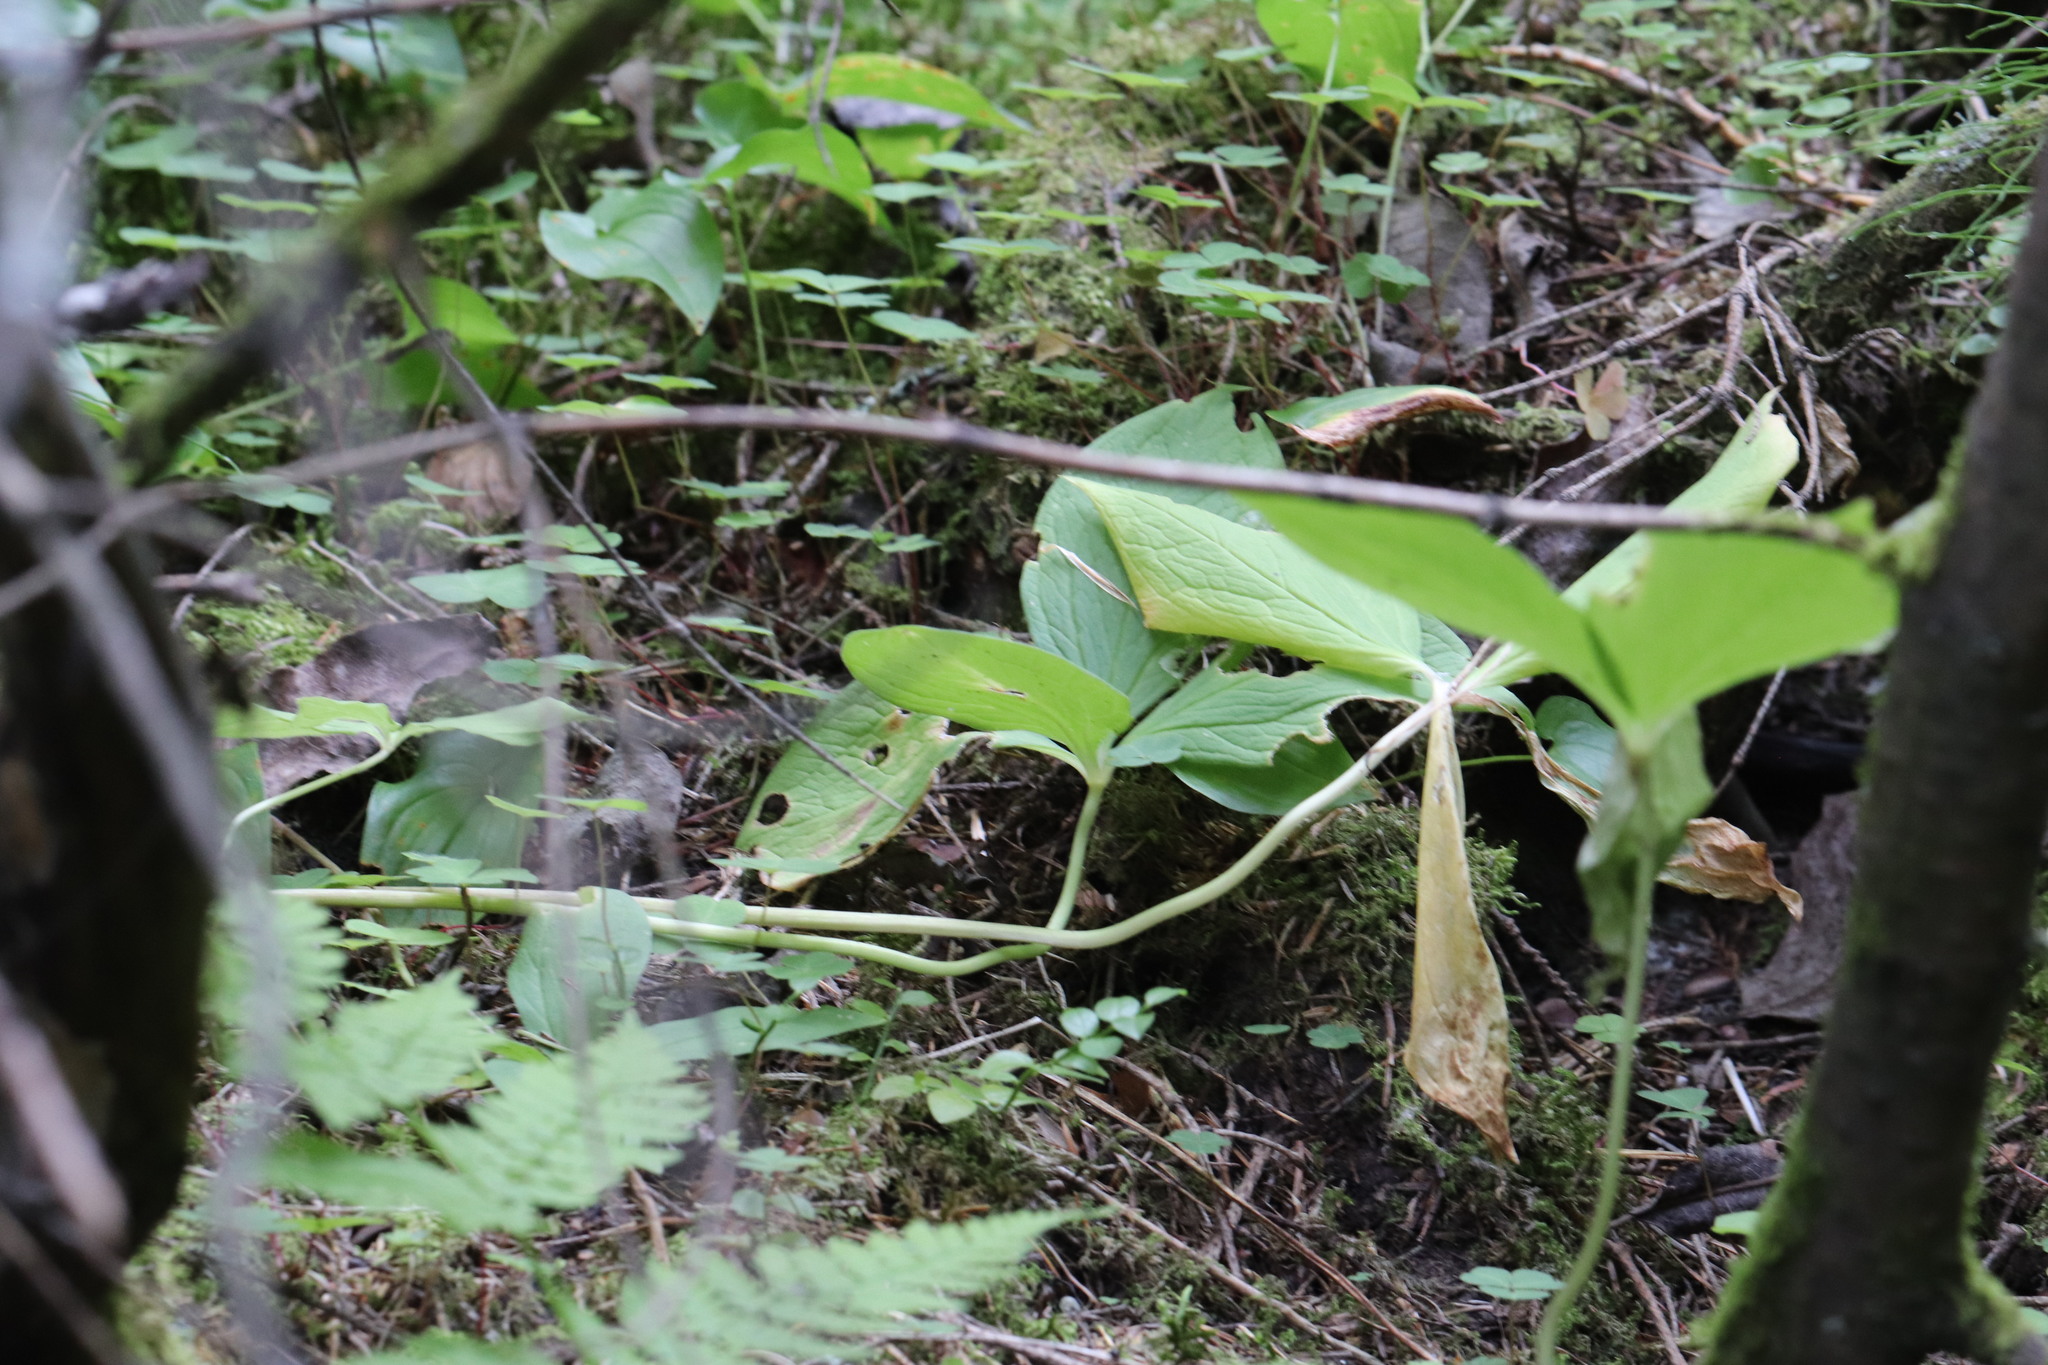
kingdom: Plantae
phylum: Tracheophyta
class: Liliopsida
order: Liliales
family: Melanthiaceae
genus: Paris
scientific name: Paris quadrifolia
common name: Herb-paris
